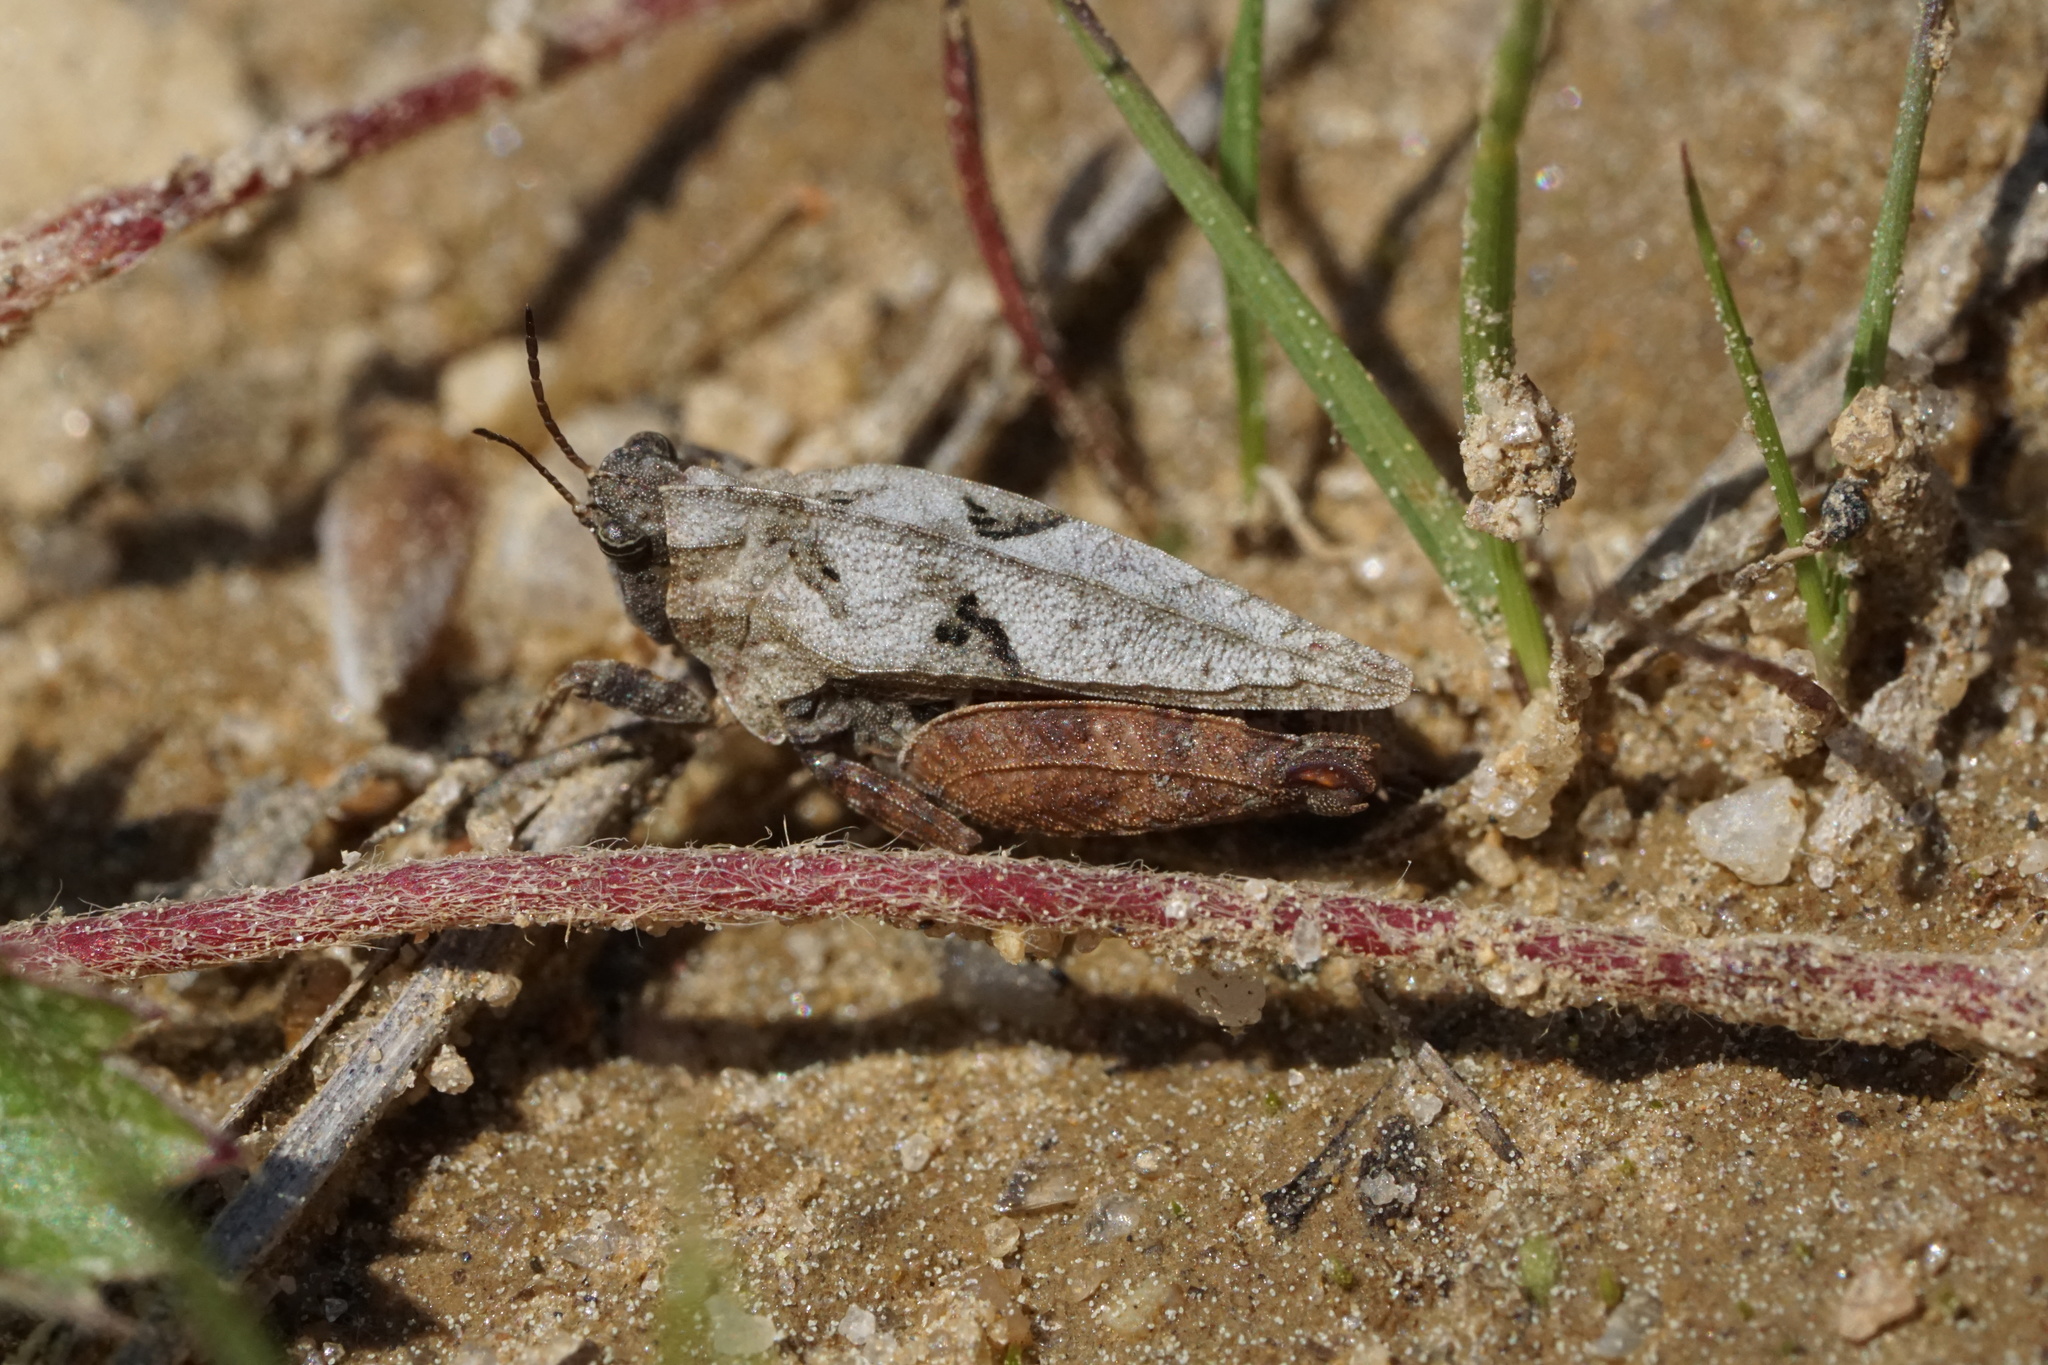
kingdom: Animalia
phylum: Arthropoda
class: Insecta
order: Orthoptera
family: Tetrigidae
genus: Nomotettix
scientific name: Nomotettix cristatus
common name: Crested grouse locust
